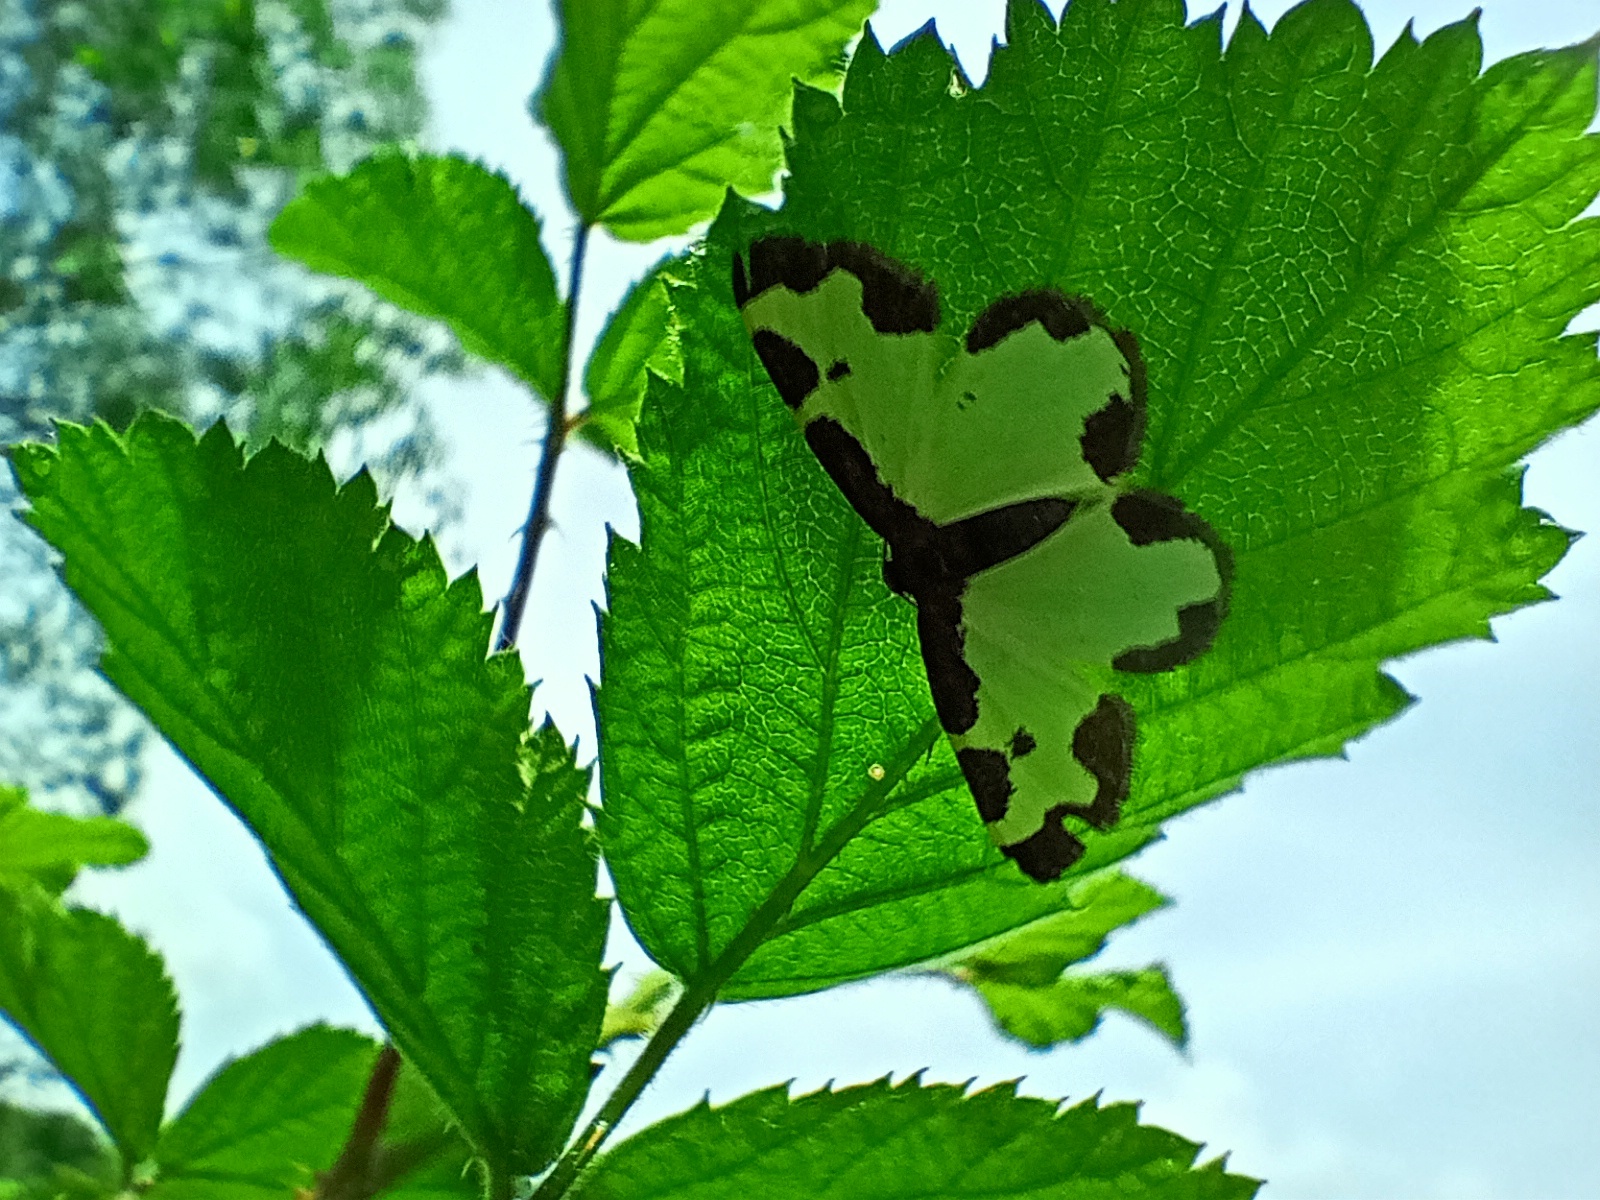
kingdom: Animalia
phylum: Arthropoda
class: Insecta
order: Lepidoptera
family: Geometridae
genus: Lomaspilis
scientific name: Lomaspilis marginata
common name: Clouded border
